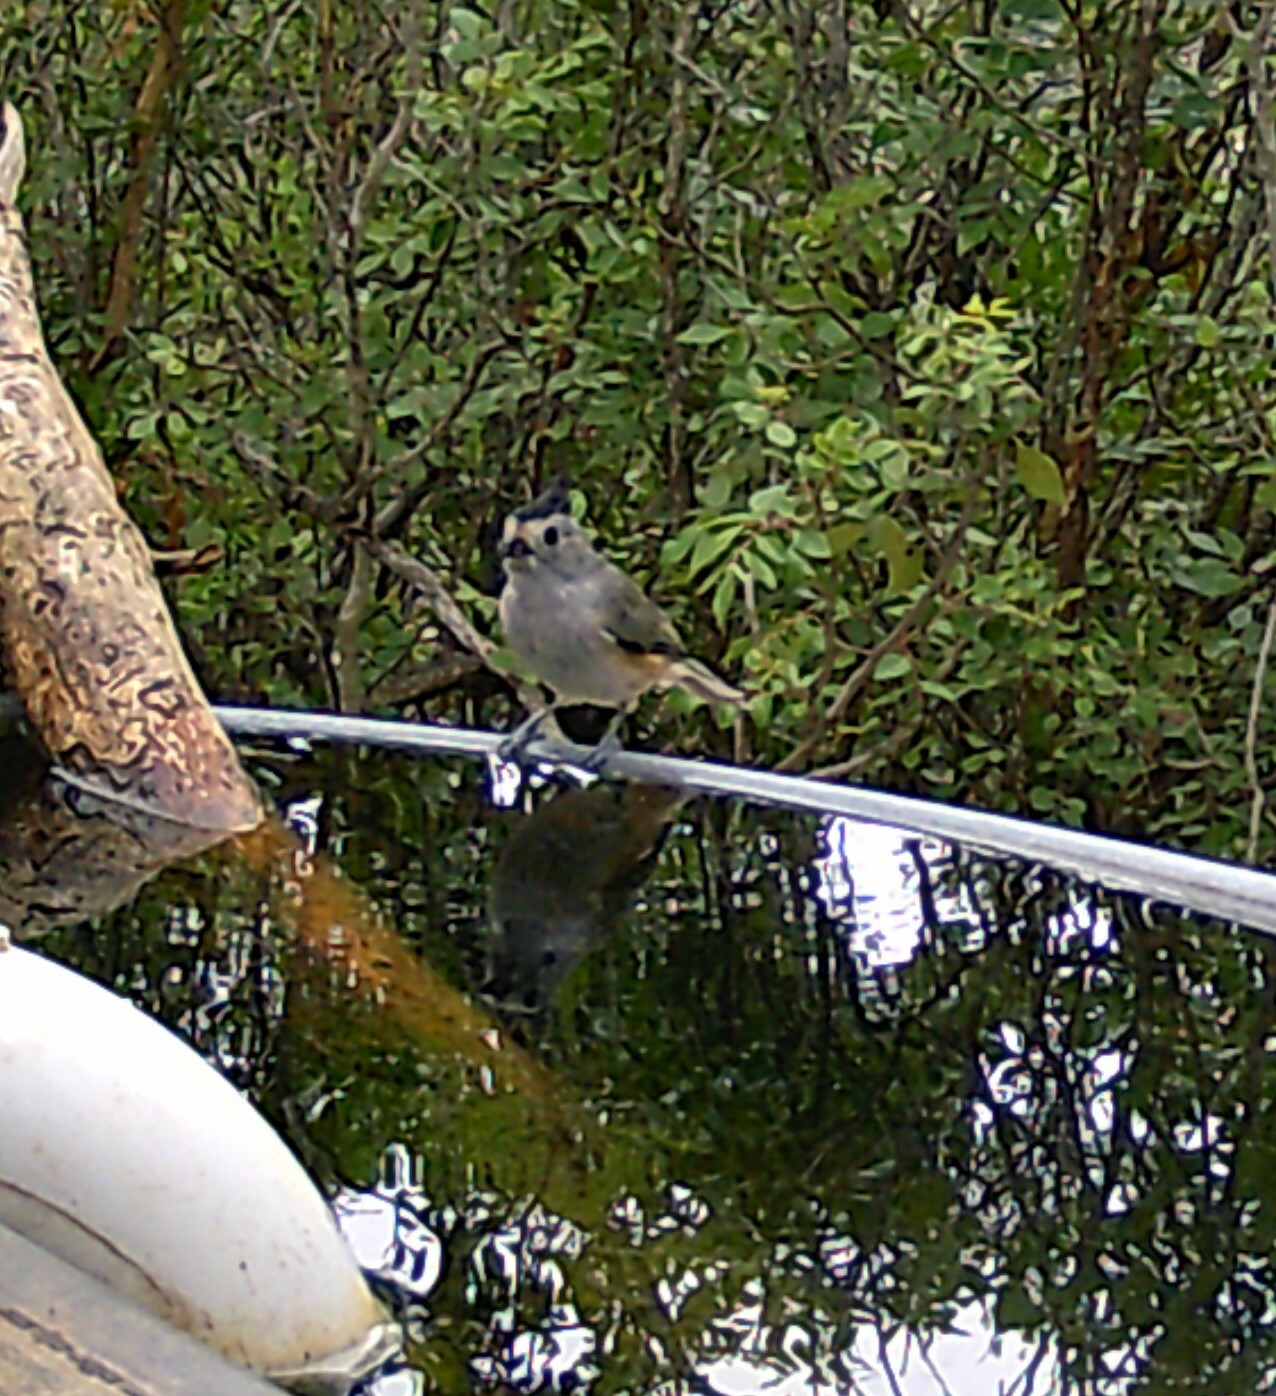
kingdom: Animalia
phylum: Chordata
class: Aves
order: Passeriformes
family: Paridae
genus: Baeolophus
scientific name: Baeolophus atricristatus
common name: Black-crested titmouse
